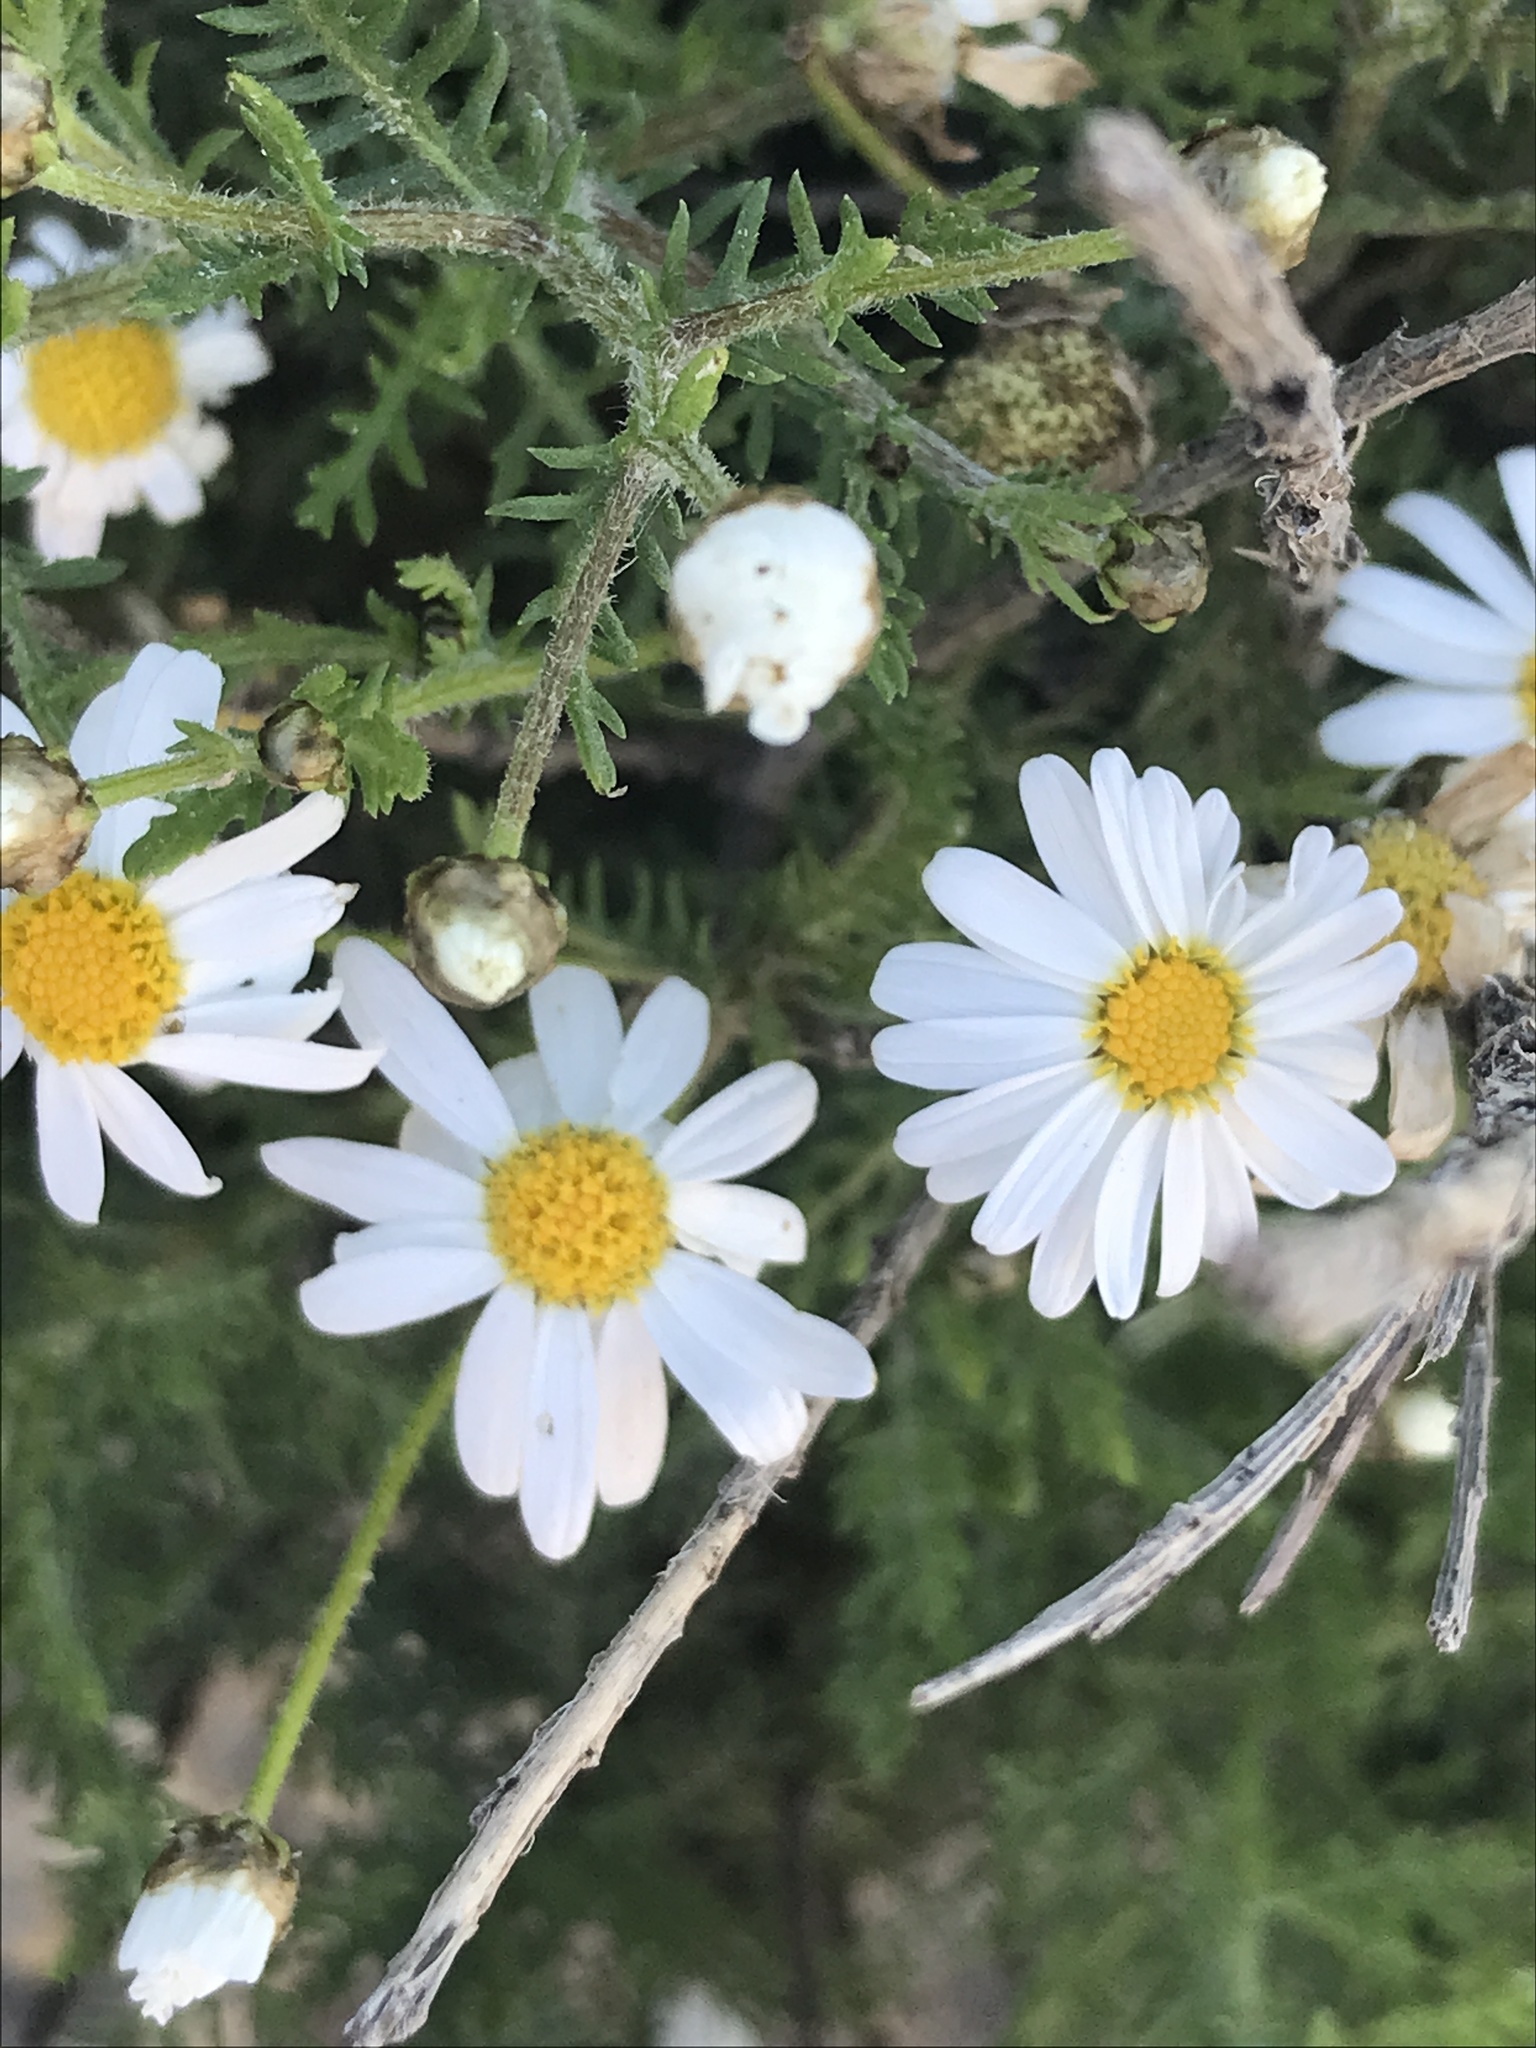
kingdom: Plantae
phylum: Tracheophyta
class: Magnoliopsida
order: Asterales
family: Asteraceae
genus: Argyranthemum
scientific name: Argyranthemum adauctum
